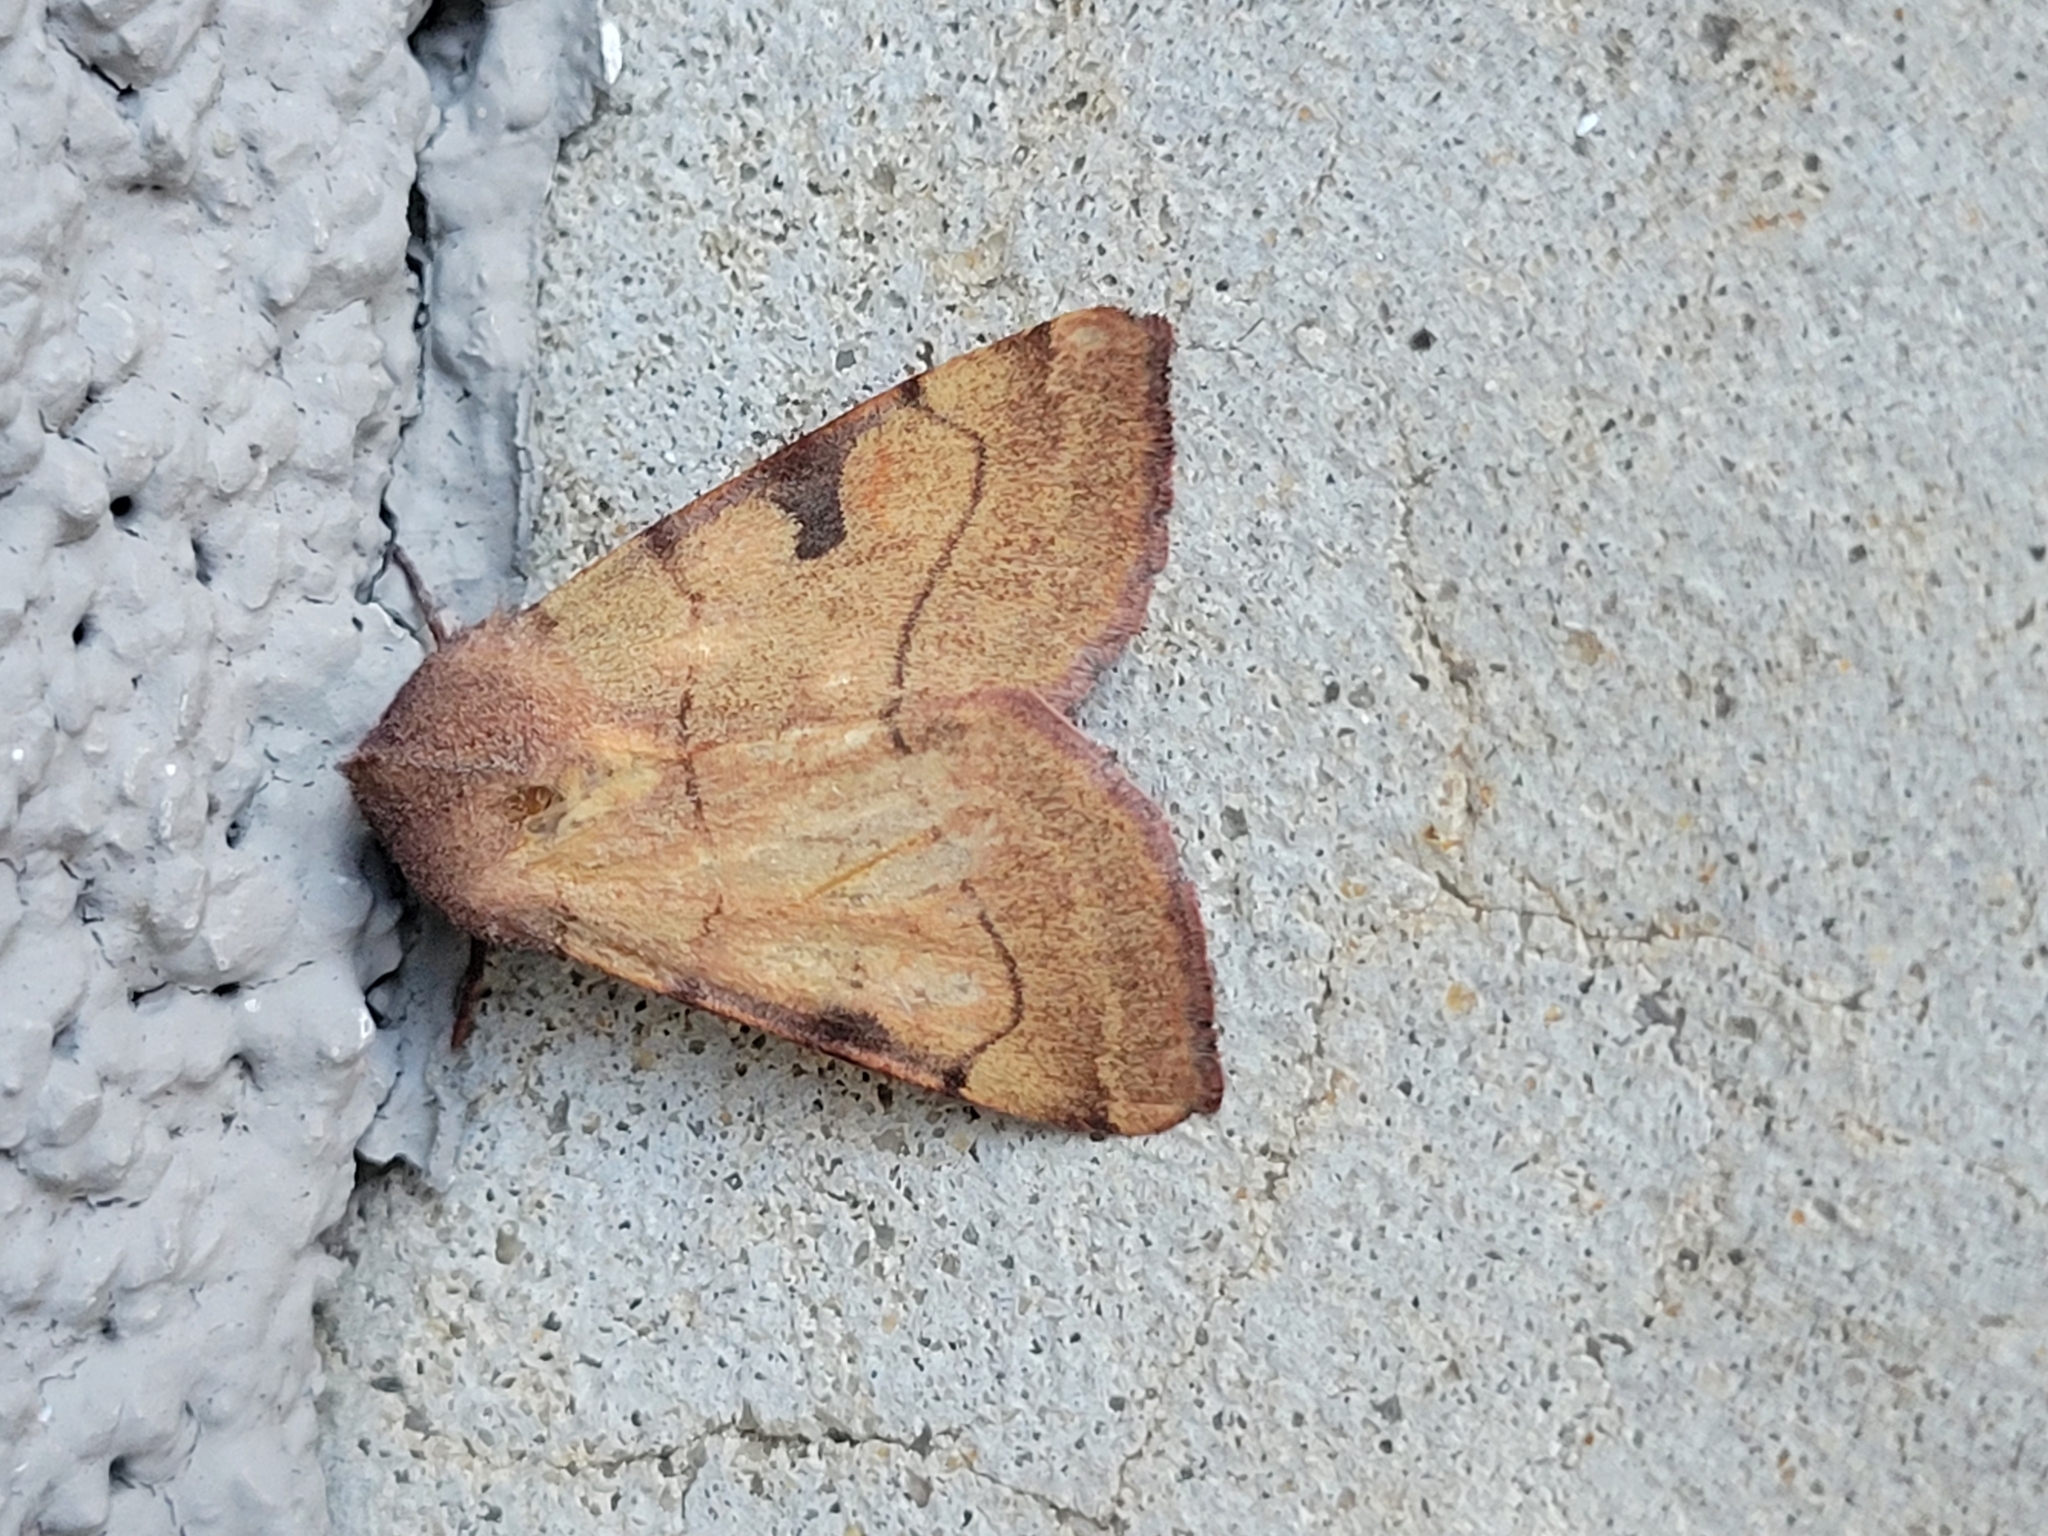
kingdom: Animalia
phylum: Arthropoda
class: Insecta
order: Lepidoptera
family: Noctuidae
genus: Choephora
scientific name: Choephora fungorum
